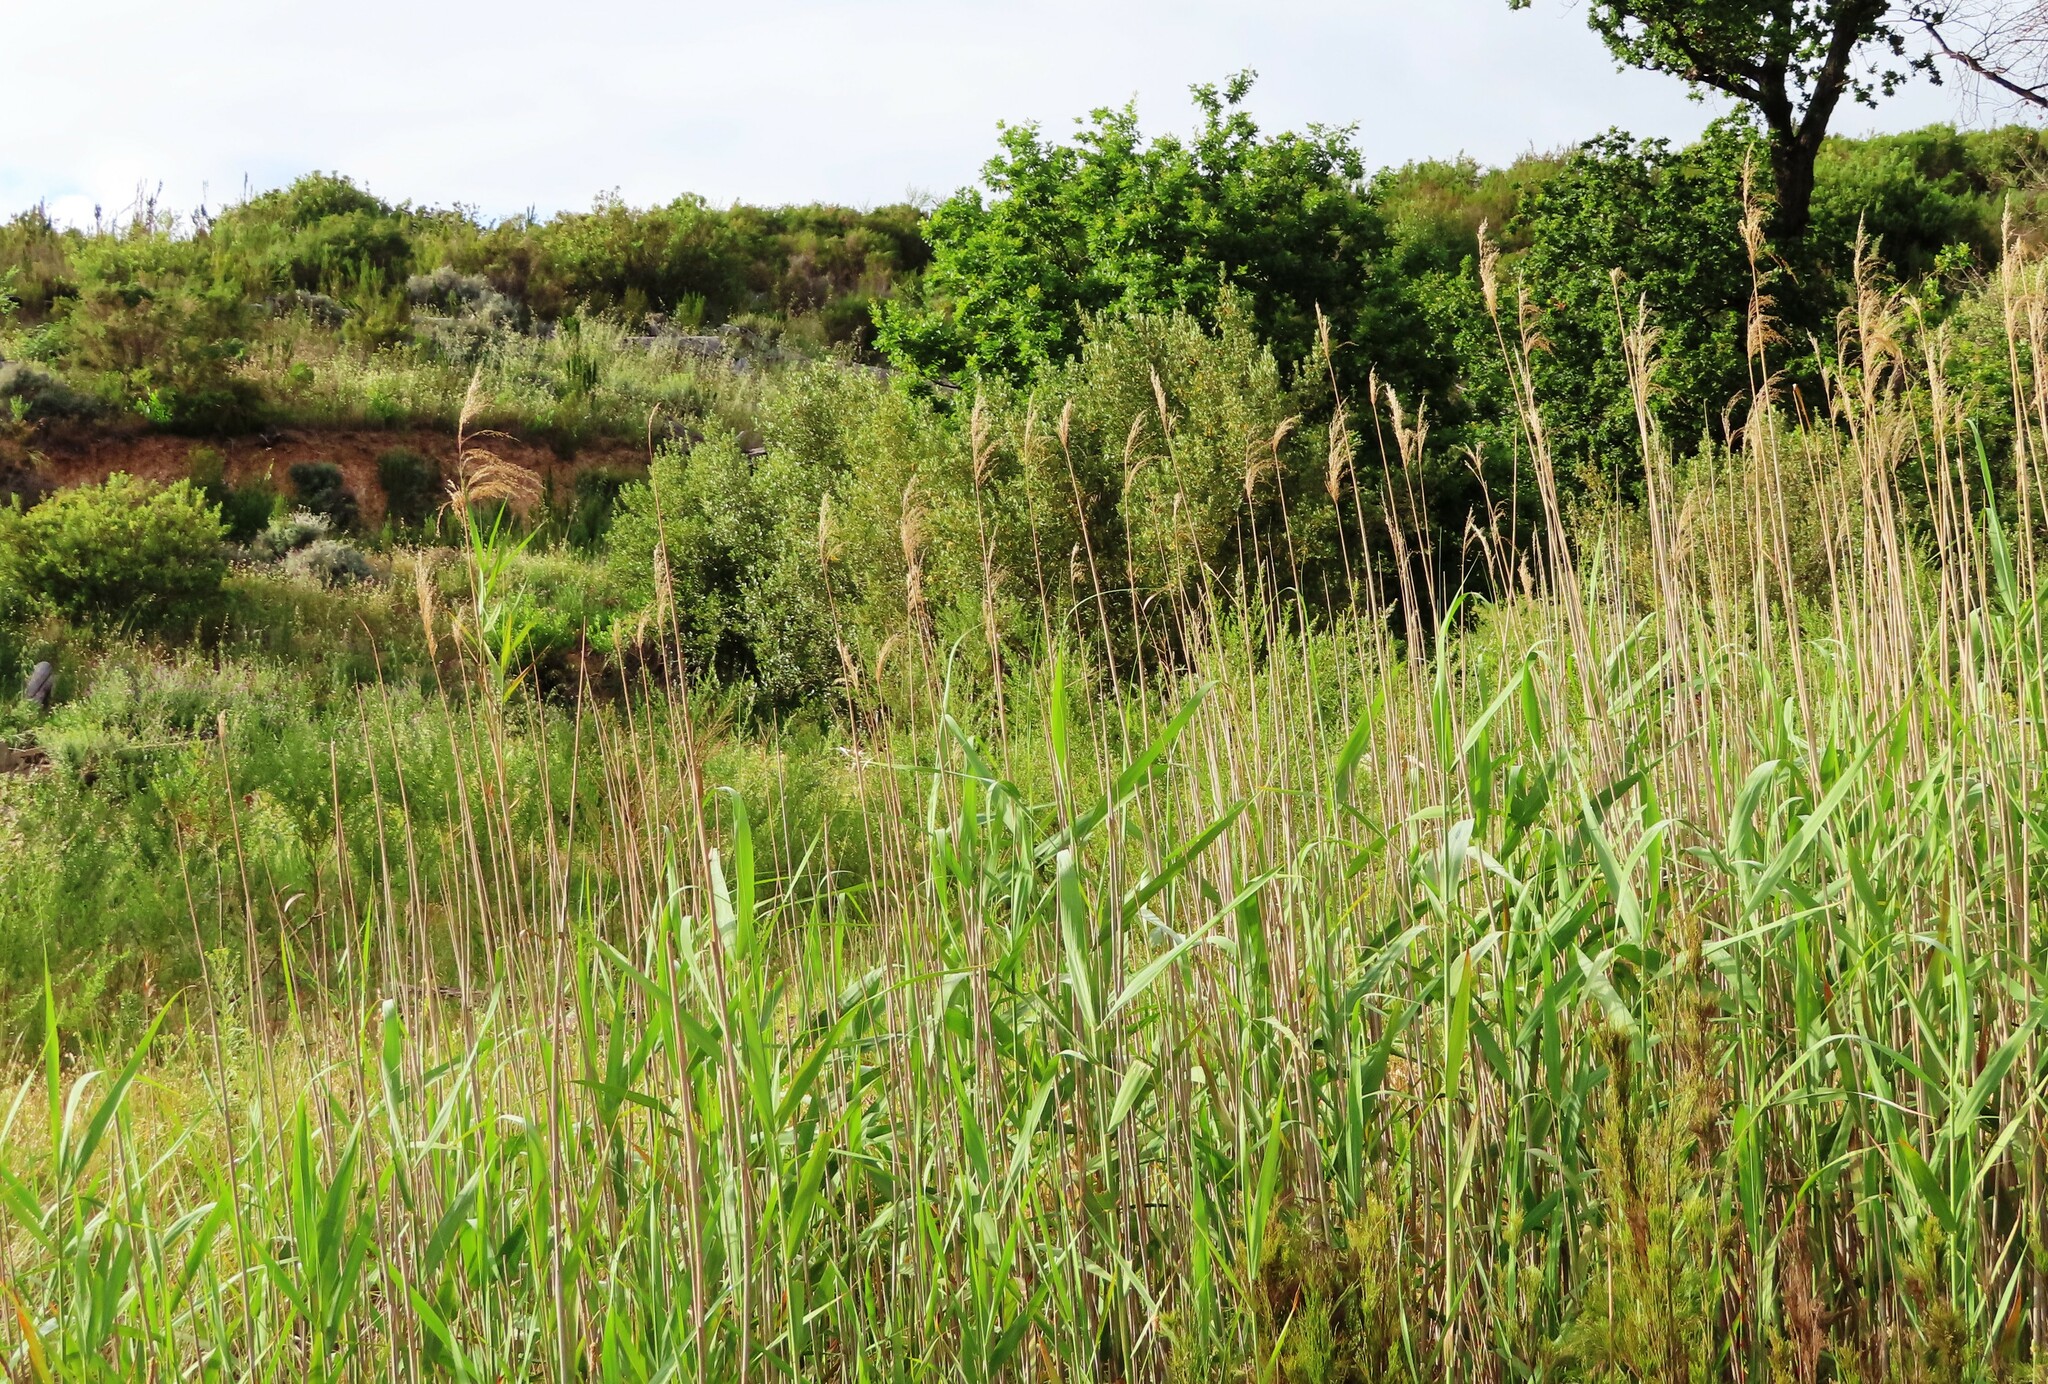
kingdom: Plantae
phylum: Tracheophyta
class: Liliopsida
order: Poales
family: Poaceae
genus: Phragmites
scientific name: Phragmites australis
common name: Common reed
